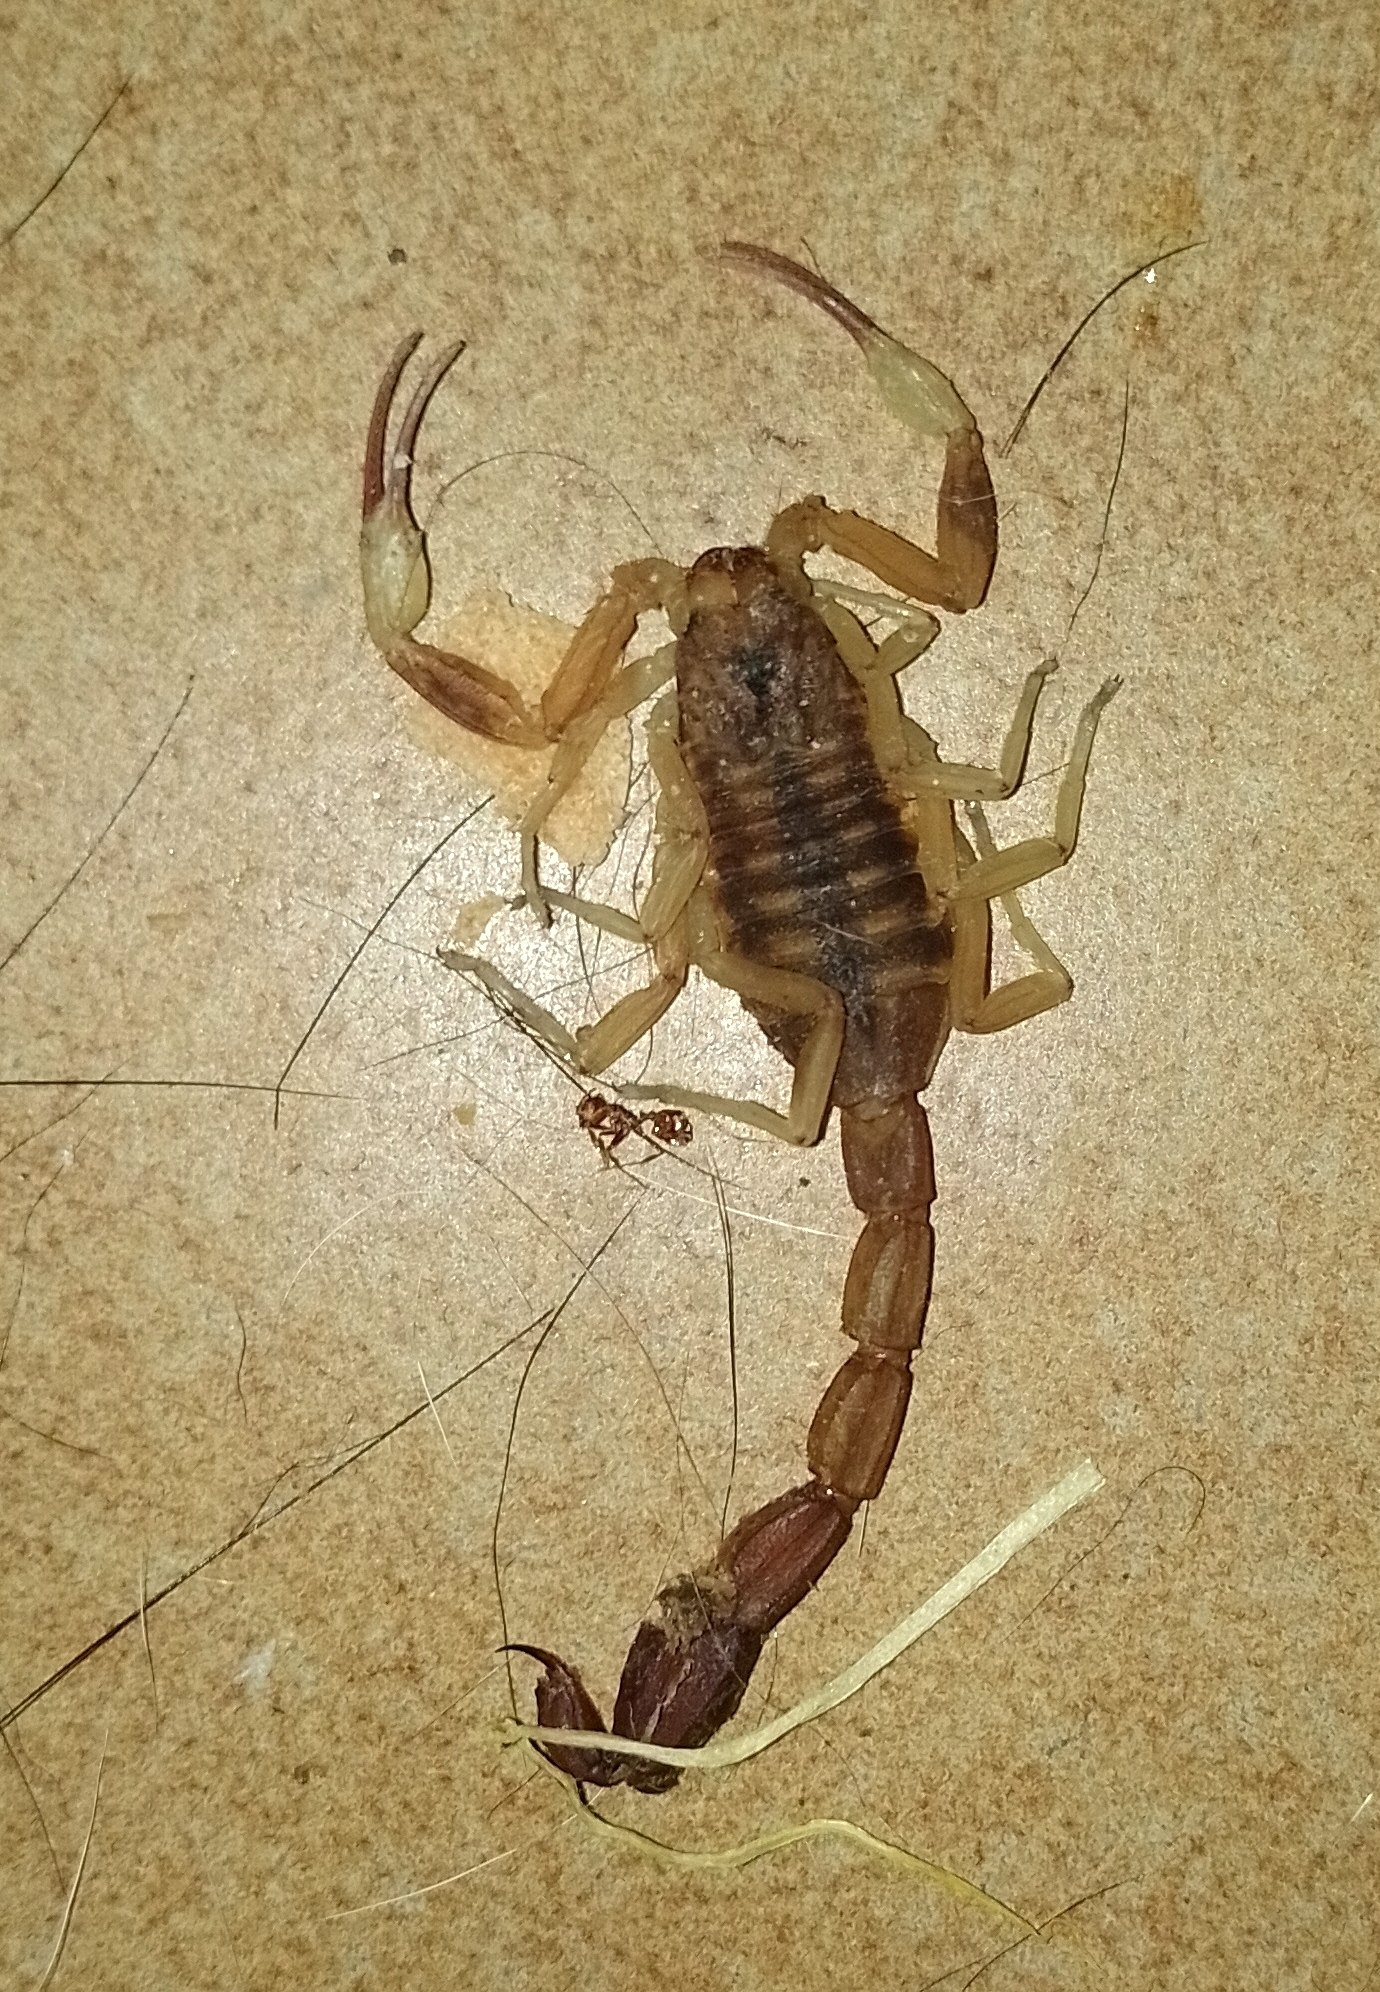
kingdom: Animalia
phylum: Arthropoda
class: Arachnida
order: Scorpiones
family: Buthidae
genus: Tityus
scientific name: Tityus carrilloi
